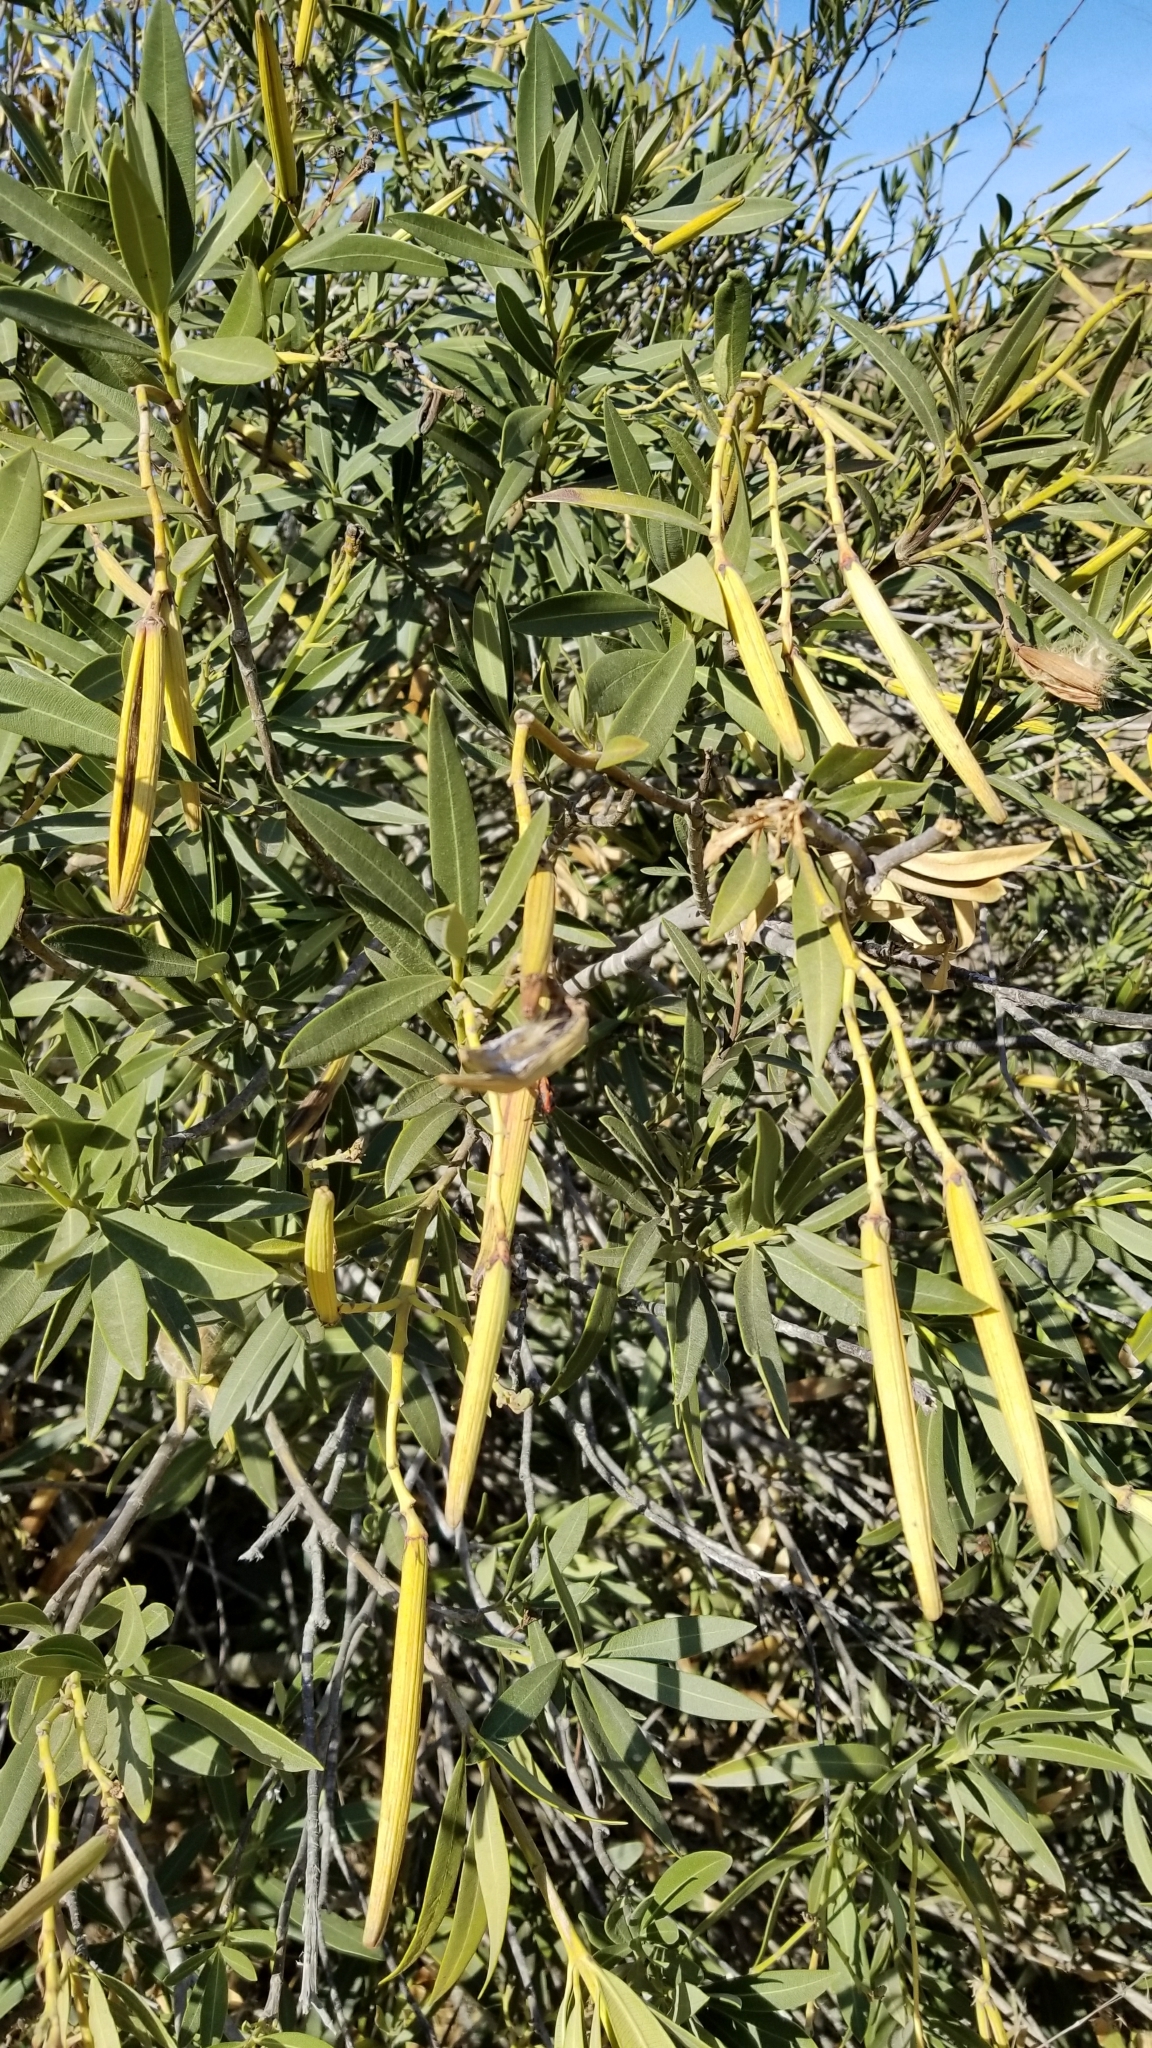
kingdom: Plantae
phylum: Tracheophyta
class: Magnoliopsida
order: Gentianales
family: Apocynaceae
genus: Nerium
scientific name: Nerium oleander
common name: Oleander
